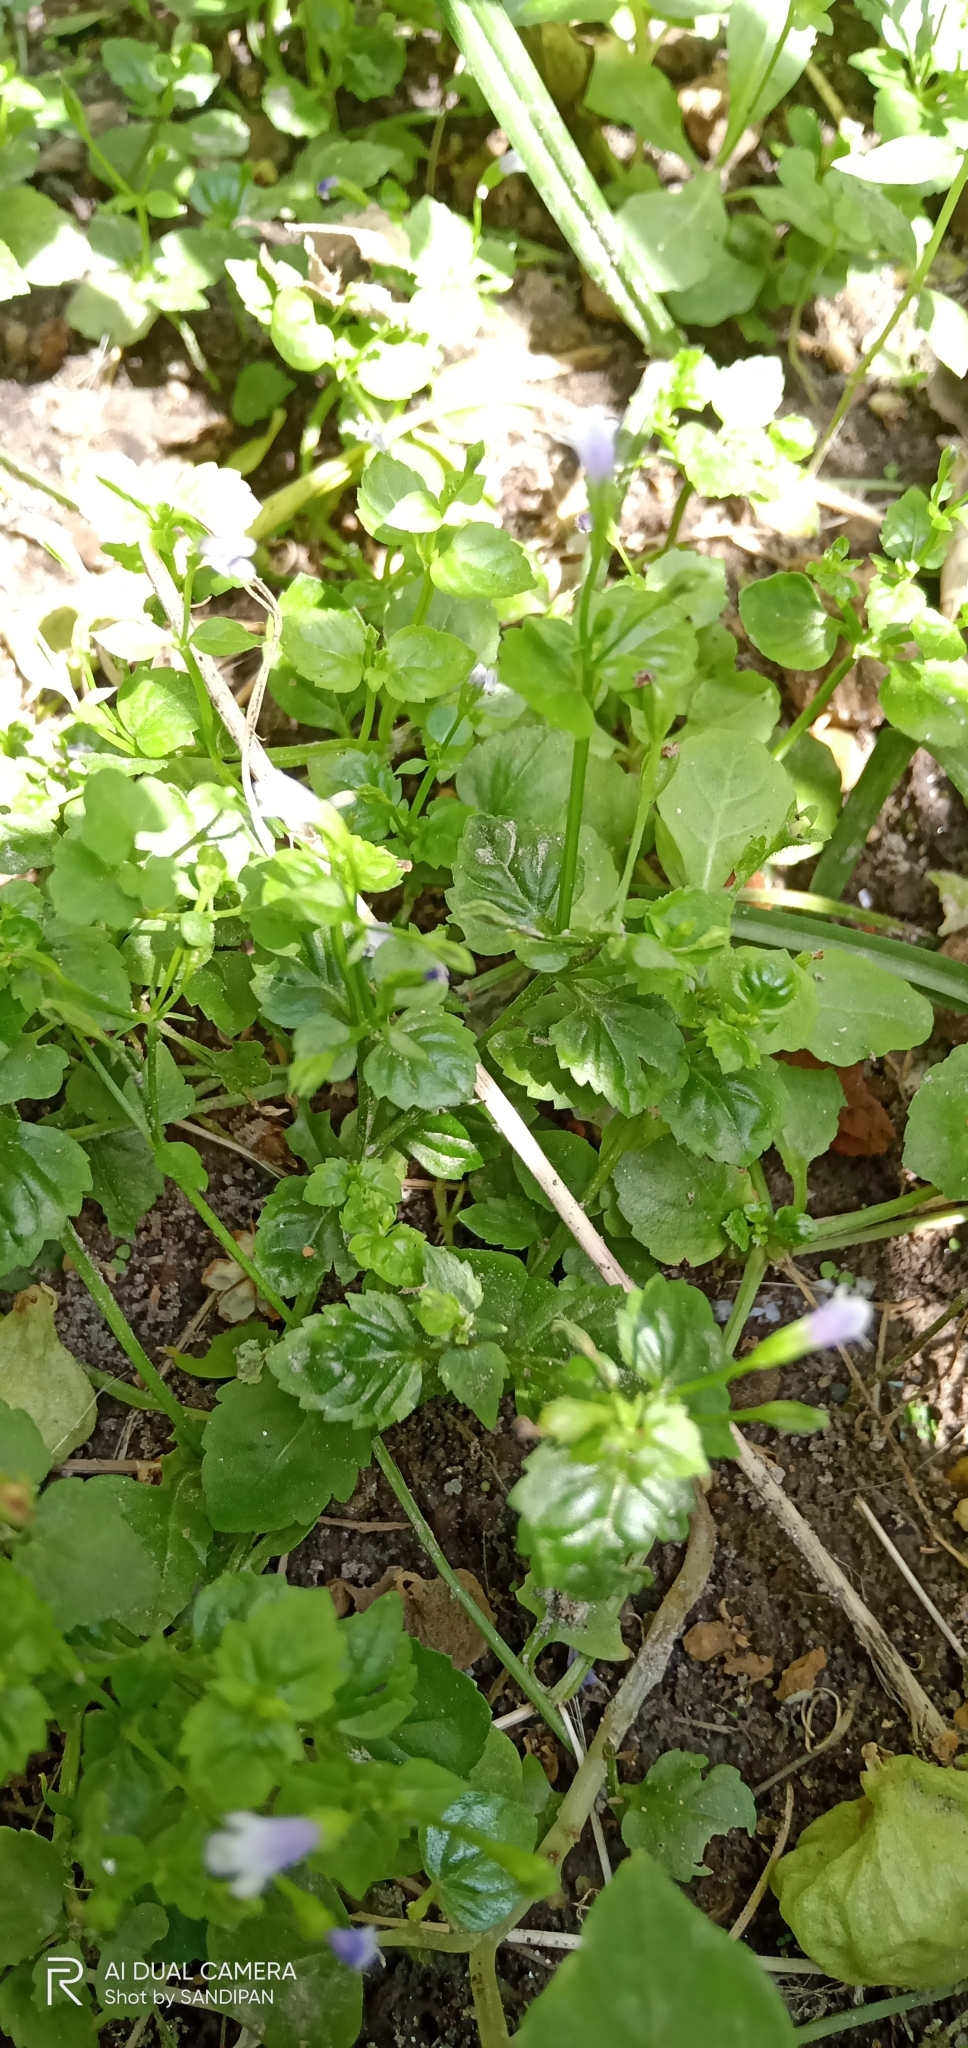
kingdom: Plantae
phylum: Tracheophyta
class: Magnoliopsida
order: Lamiales
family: Linderniaceae
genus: Torenia
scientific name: Torenia crustacea
